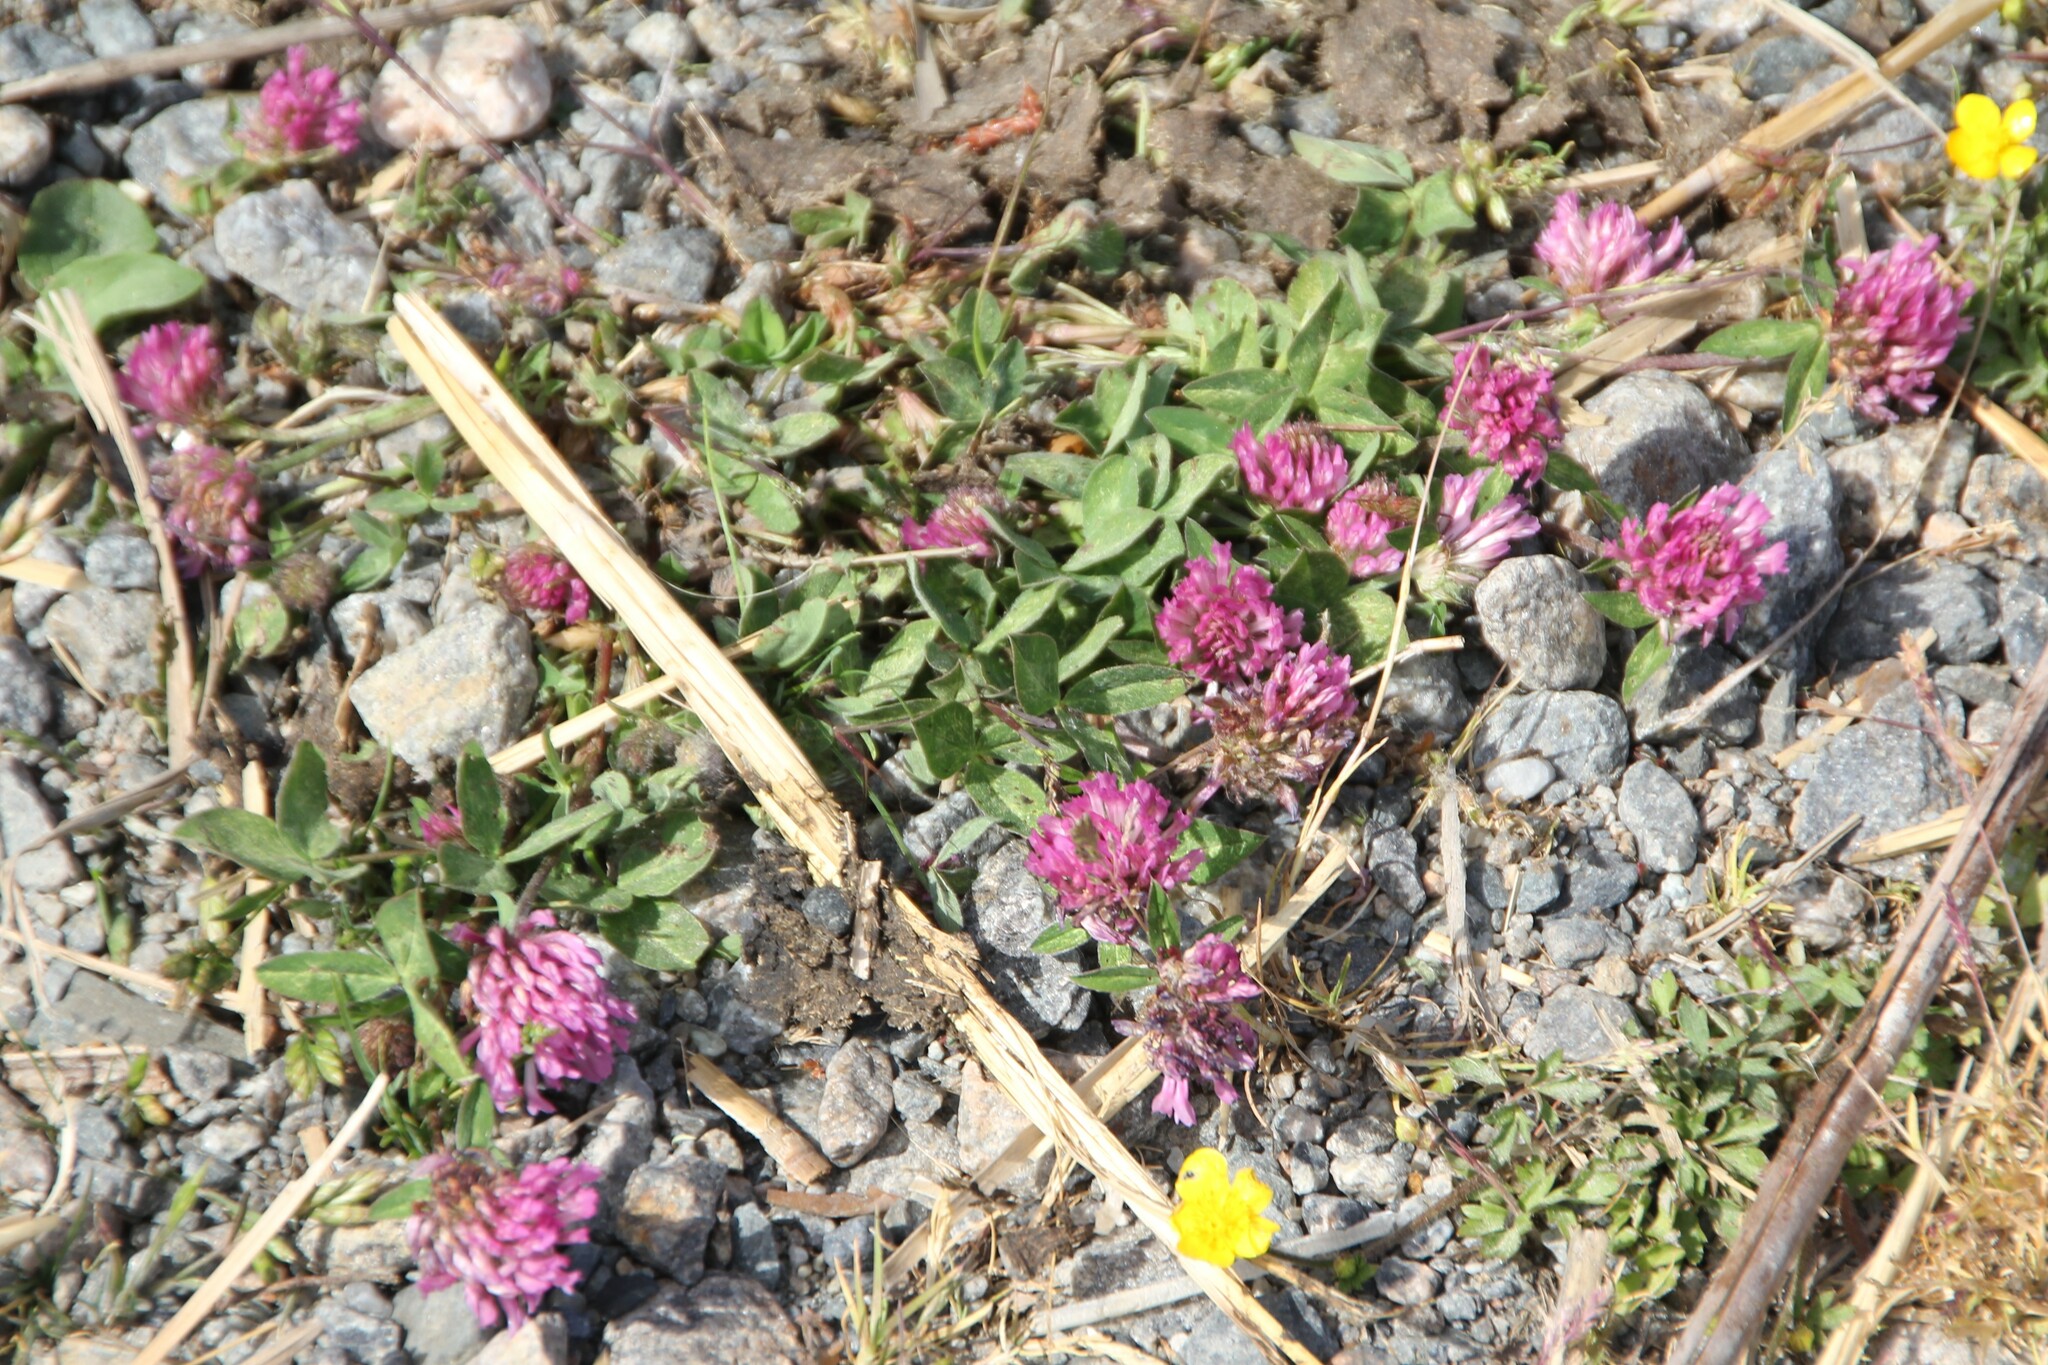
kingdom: Plantae
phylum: Tracheophyta
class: Magnoliopsida
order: Fabales
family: Fabaceae
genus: Trifolium
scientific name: Trifolium pratense
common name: Red clover
